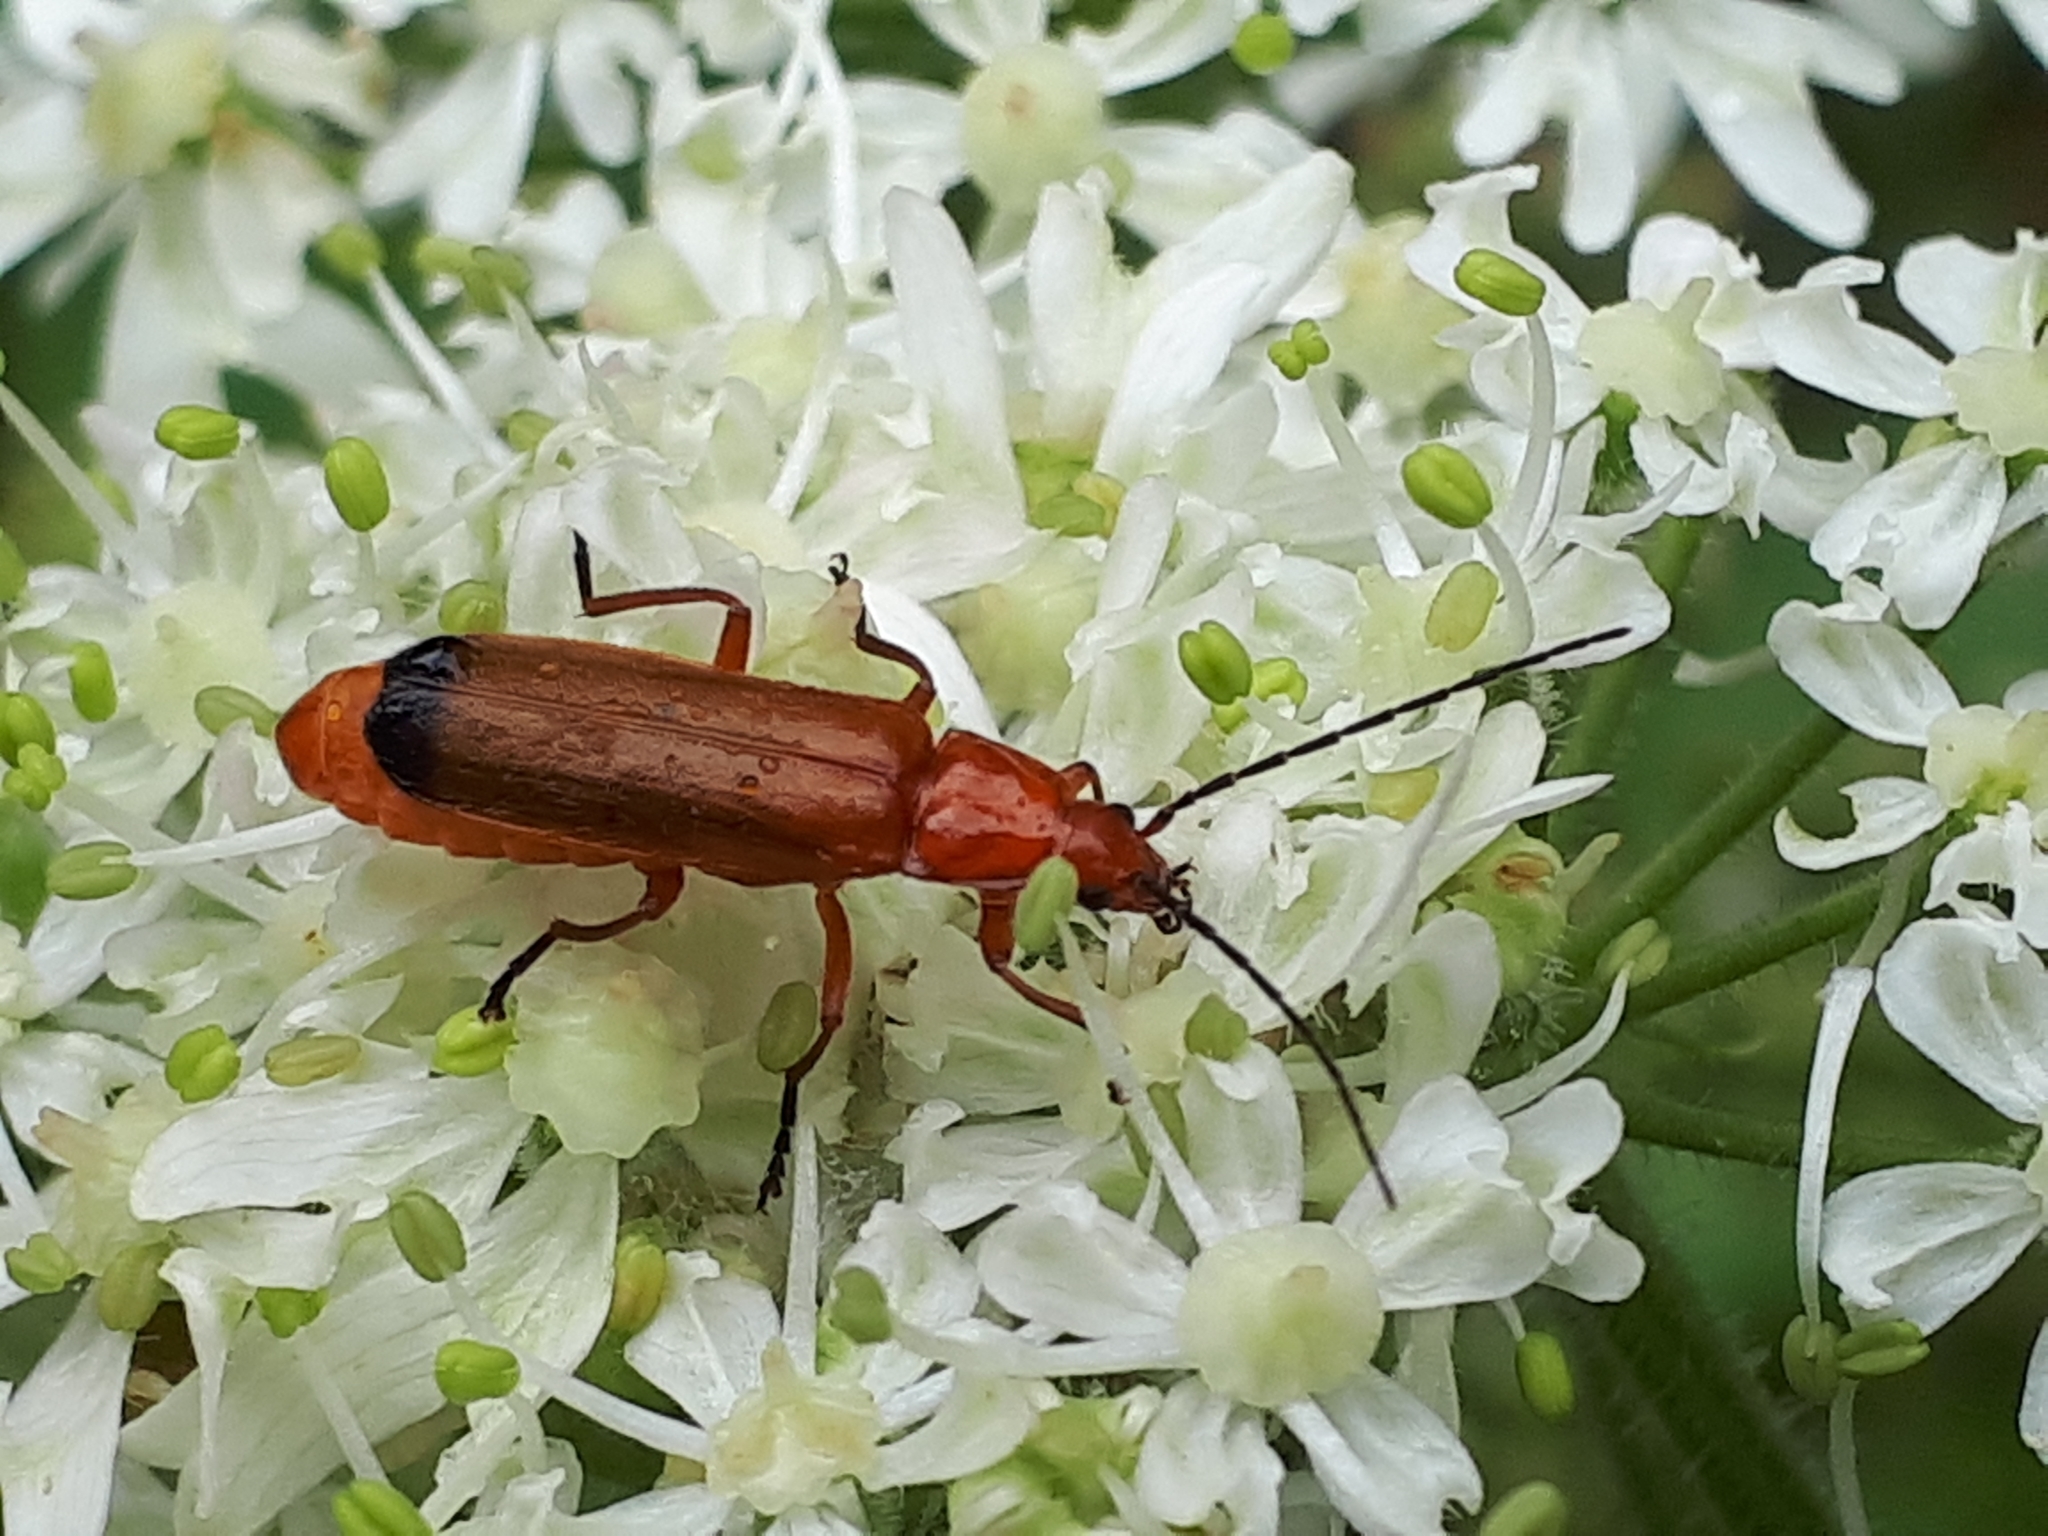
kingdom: Animalia
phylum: Arthropoda
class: Insecta
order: Coleoptera
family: Cantharidae
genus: Rhagonycha
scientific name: Rhagonycha fulva
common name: Common red soldier beetle
